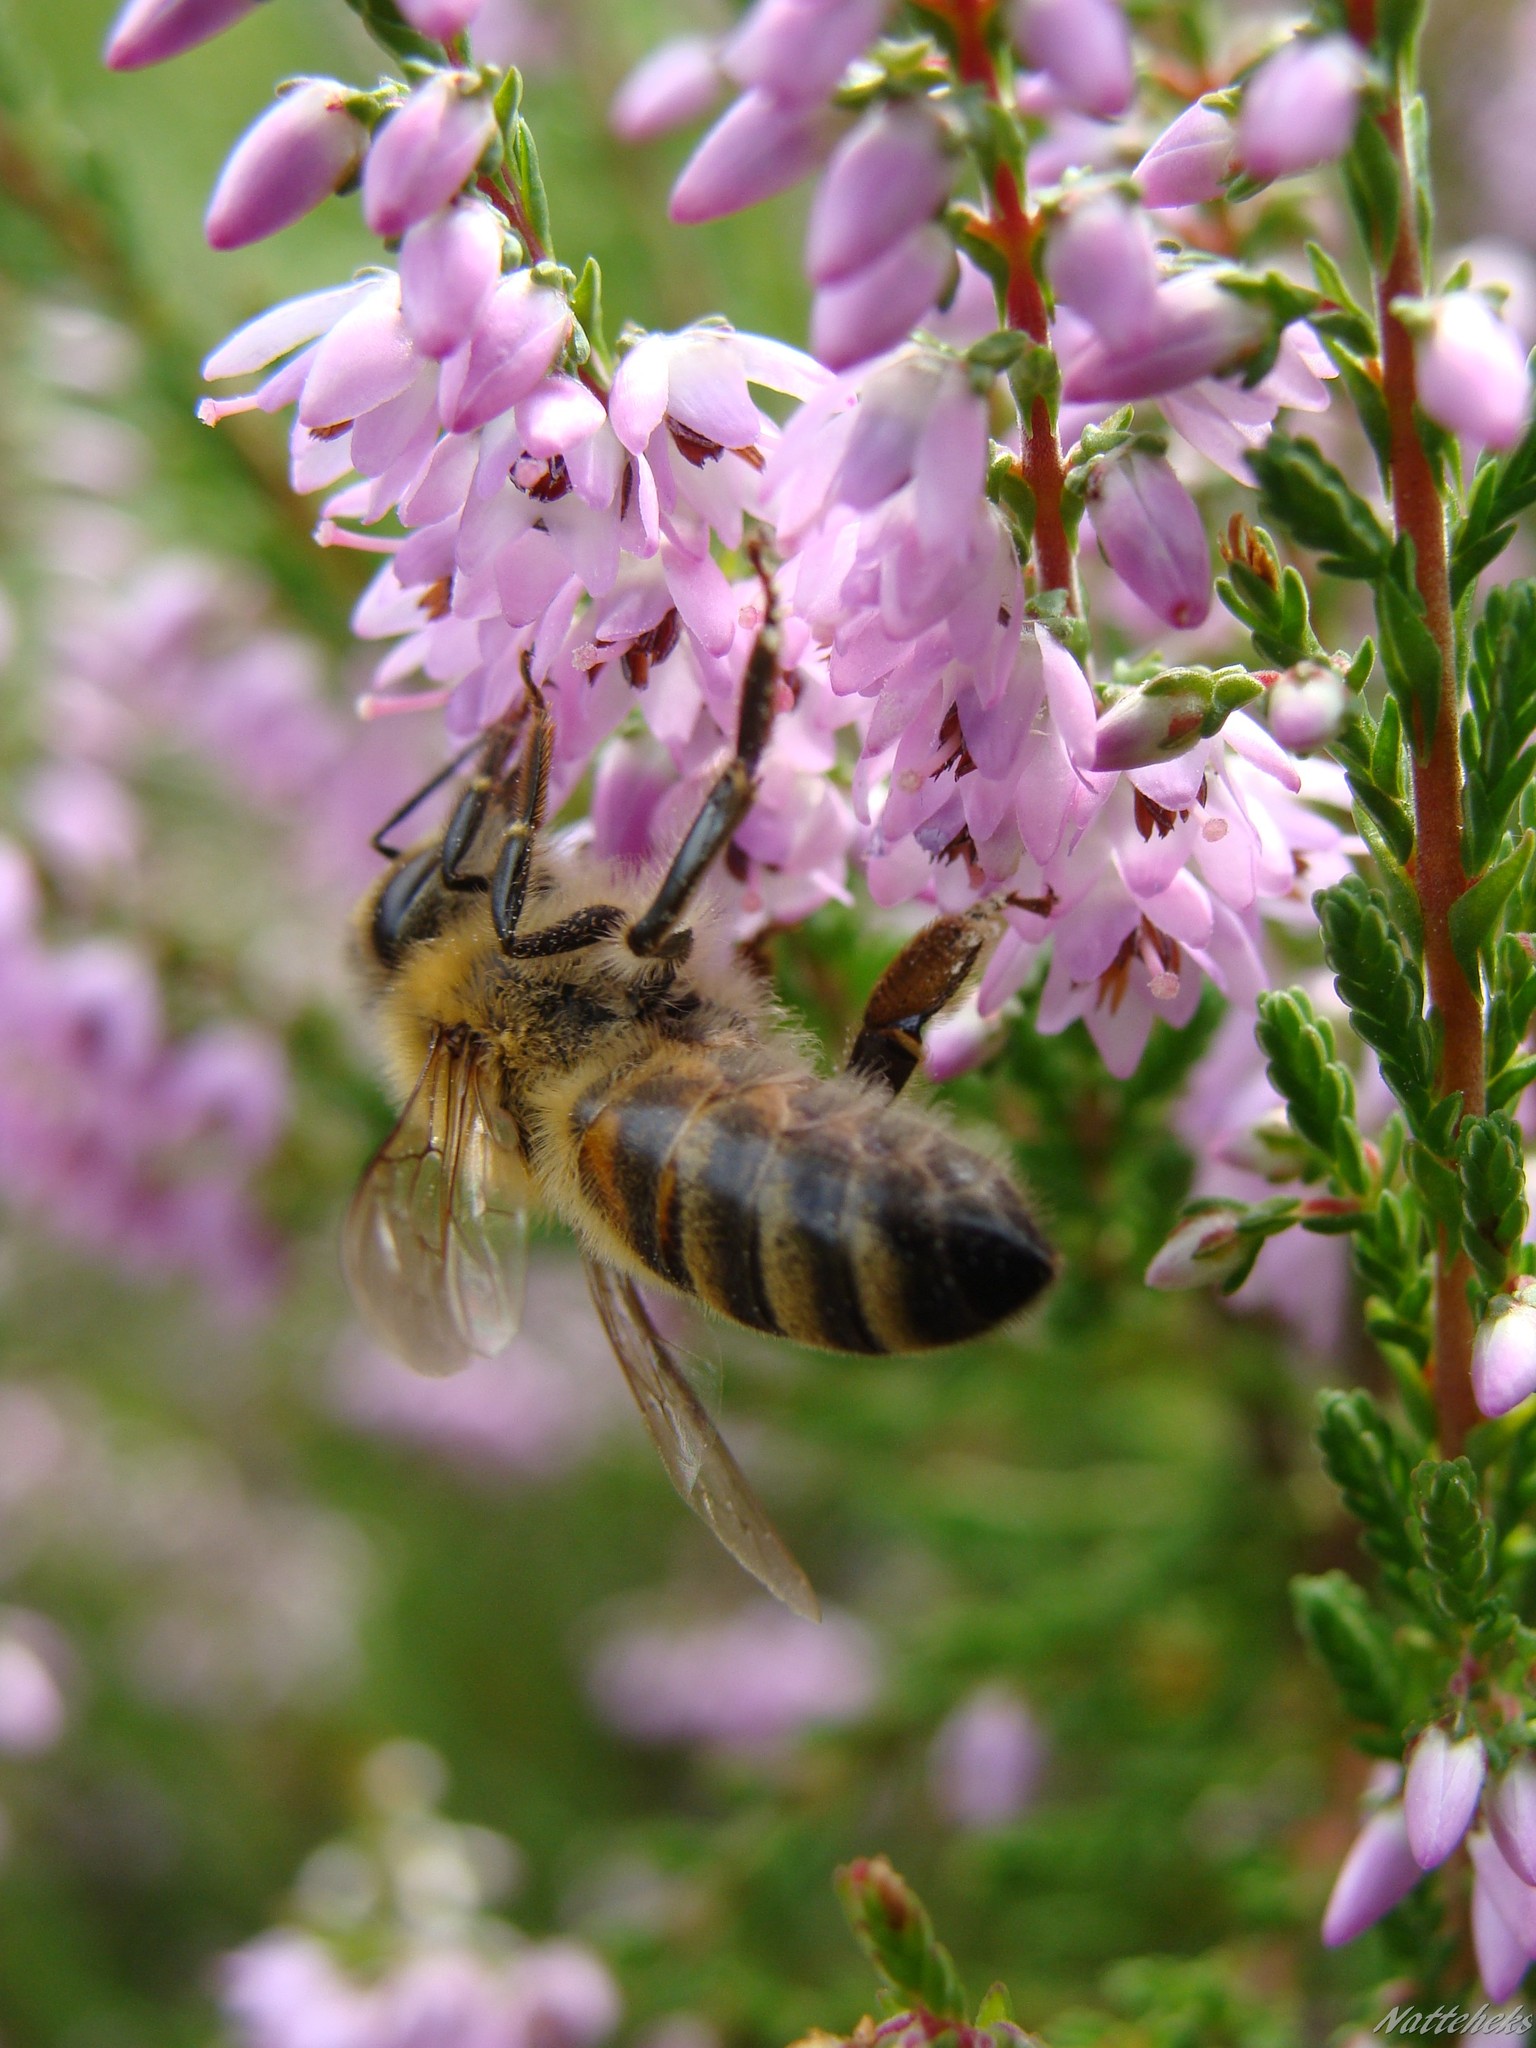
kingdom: Animalia
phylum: Arthropoda
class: Insecta
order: Hymenoptera
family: Apidae
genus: Apis
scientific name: Apis mellifera
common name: Honey bee
